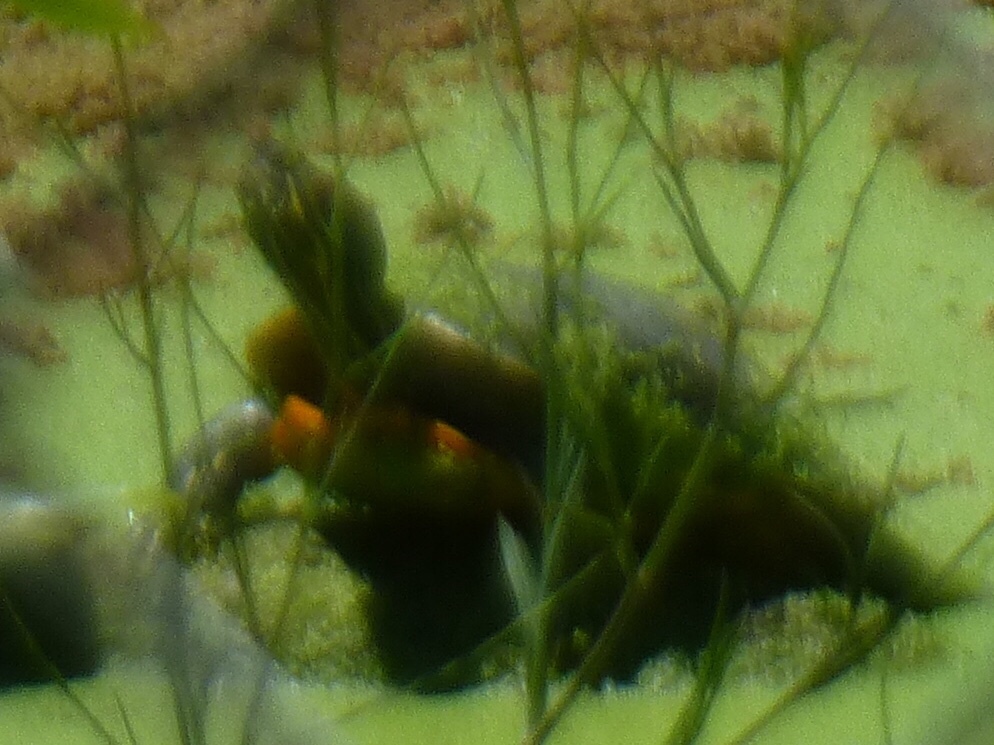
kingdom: Animalia
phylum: Chordata
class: Testudines
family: Emydidae
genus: Trachemys
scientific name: Trachemys scripta
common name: Slider
